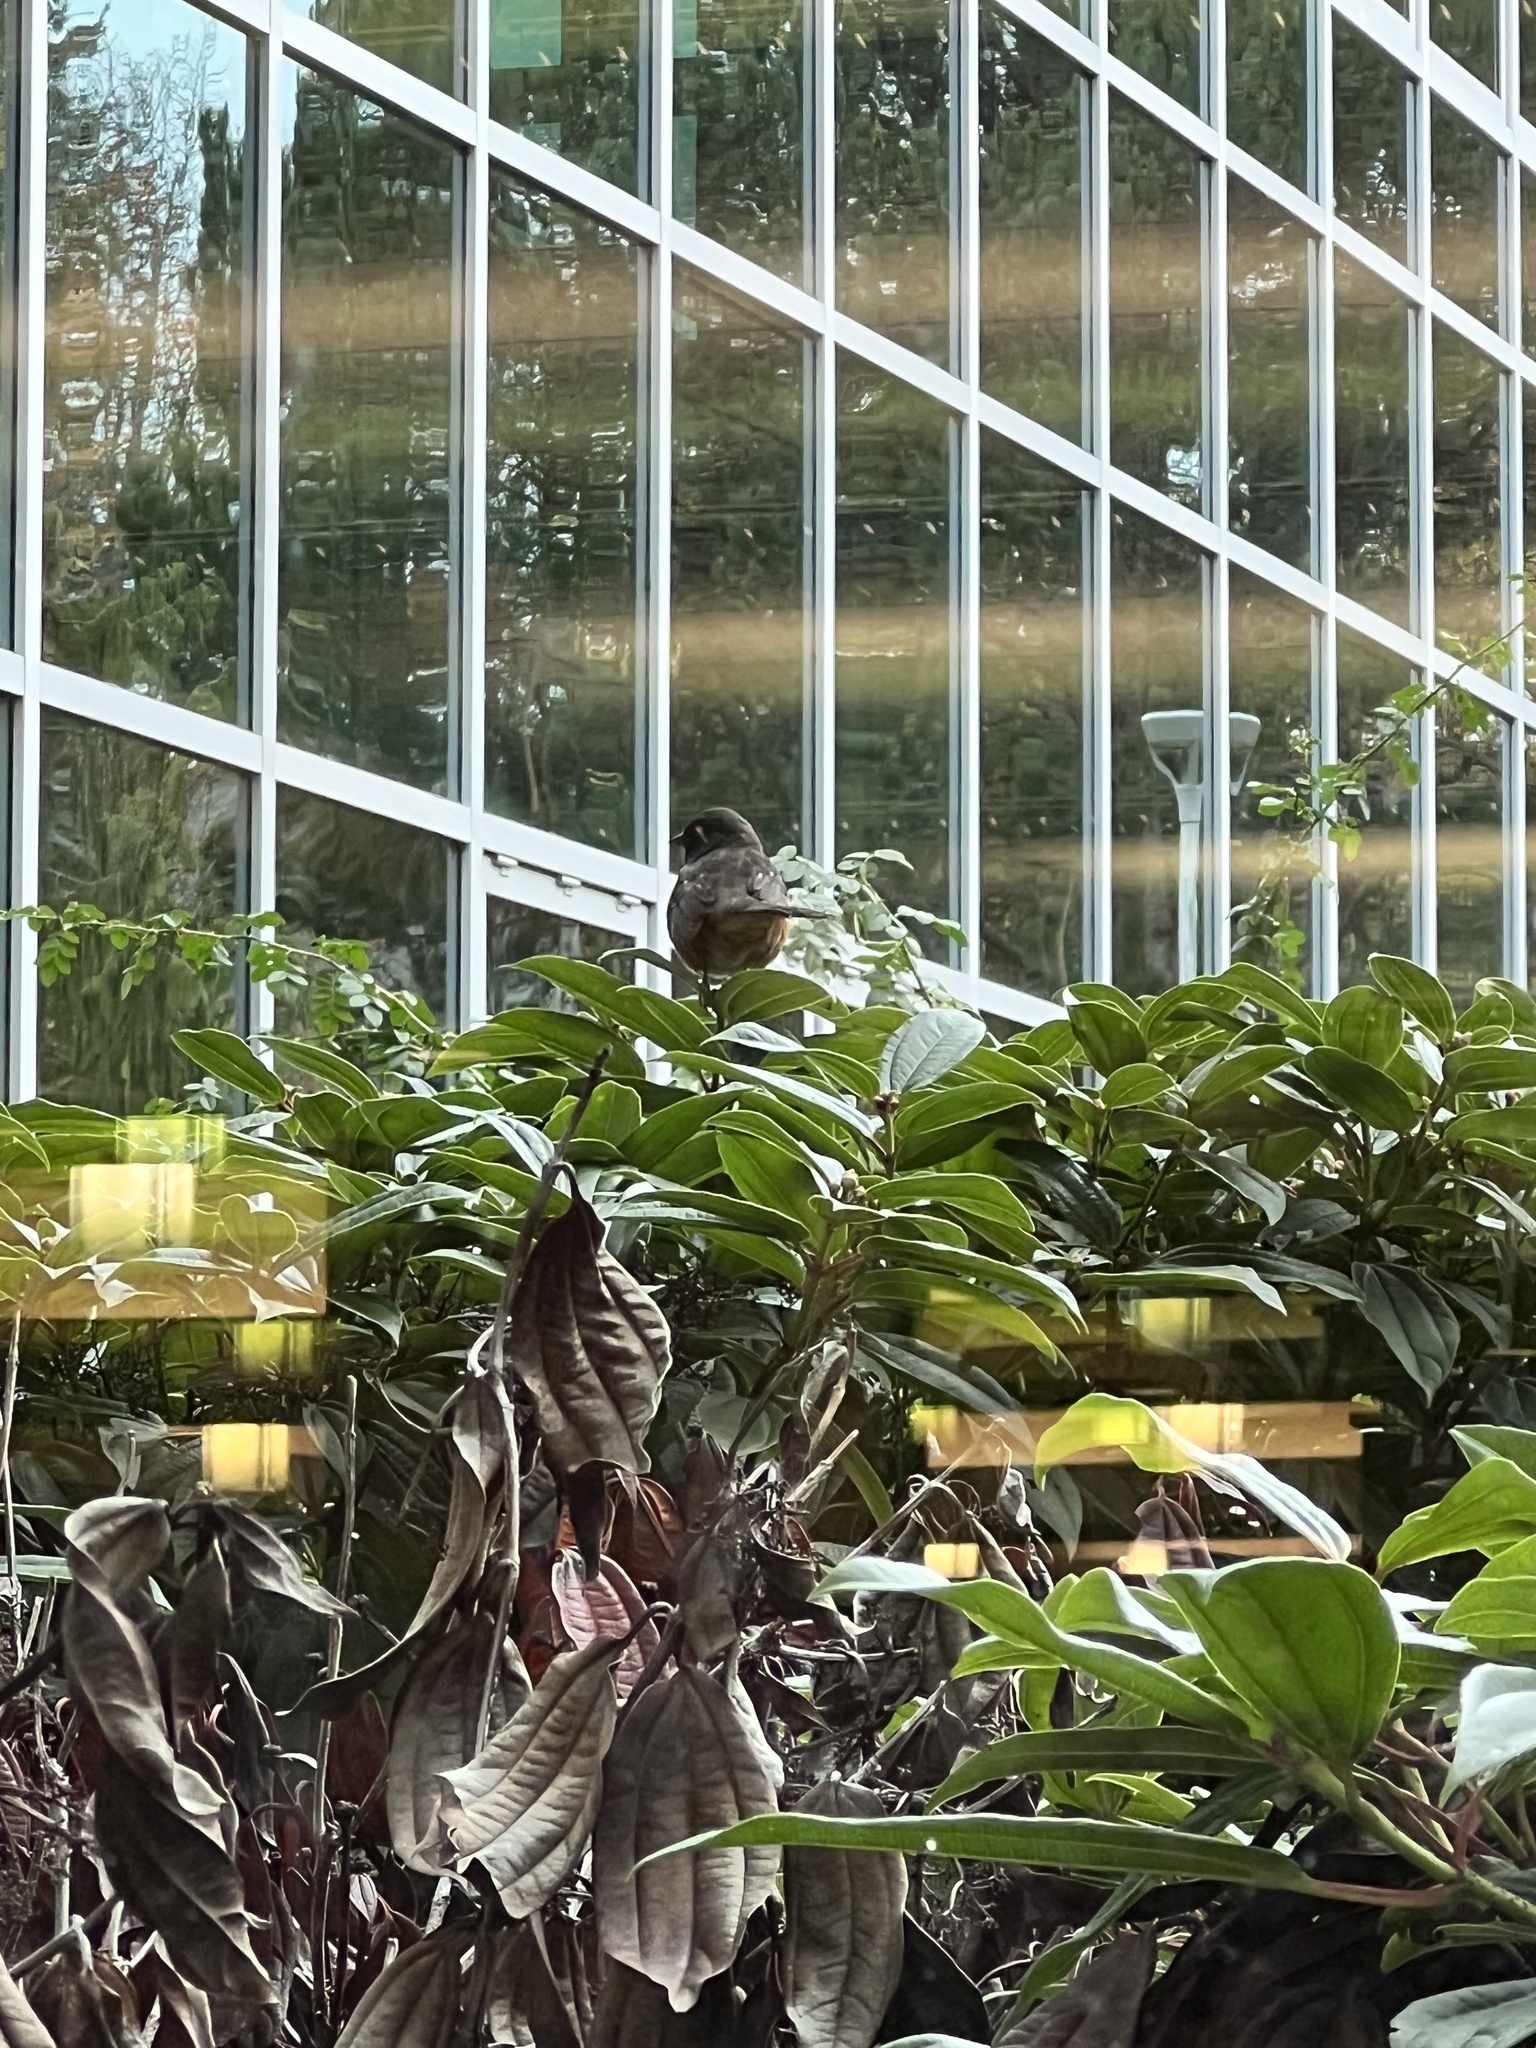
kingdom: Animalia
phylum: Chordata
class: Aves
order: Passeriformes
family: Passerellidae
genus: Pipilo
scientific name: Pipilo maculatus
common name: Spotted towhee
